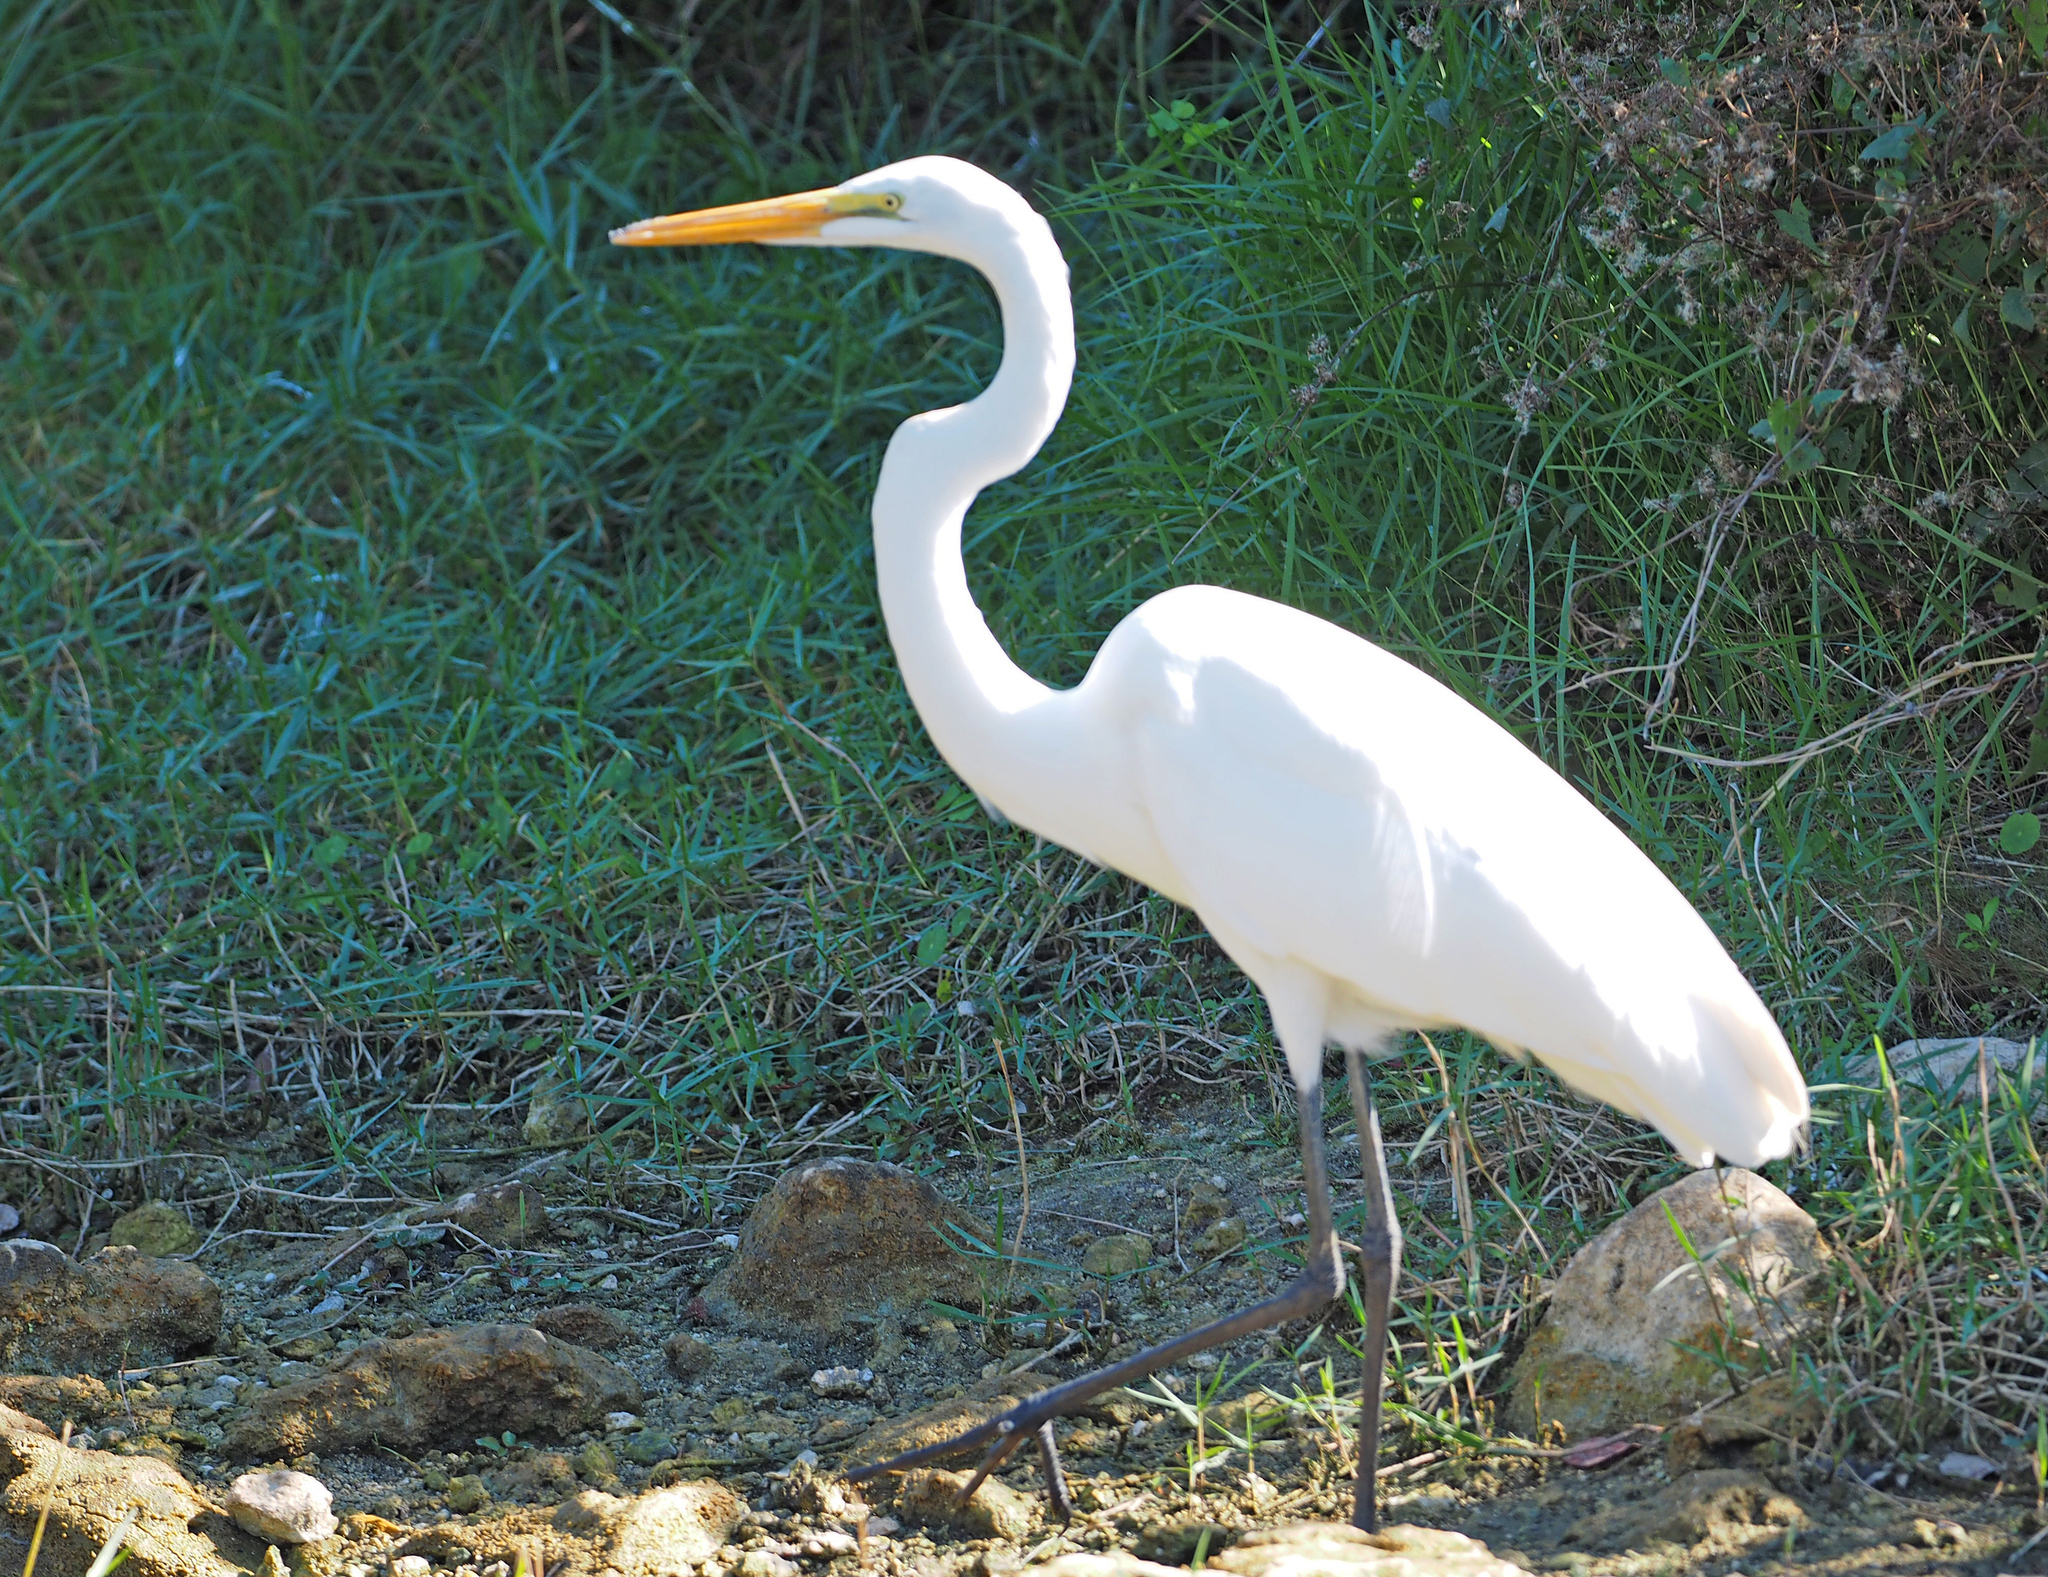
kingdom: Animalia
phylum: Chordata
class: Aves
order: Pelecaniformes
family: Ardeidae
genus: Ardea
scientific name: Ardea alba
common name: Great egret
